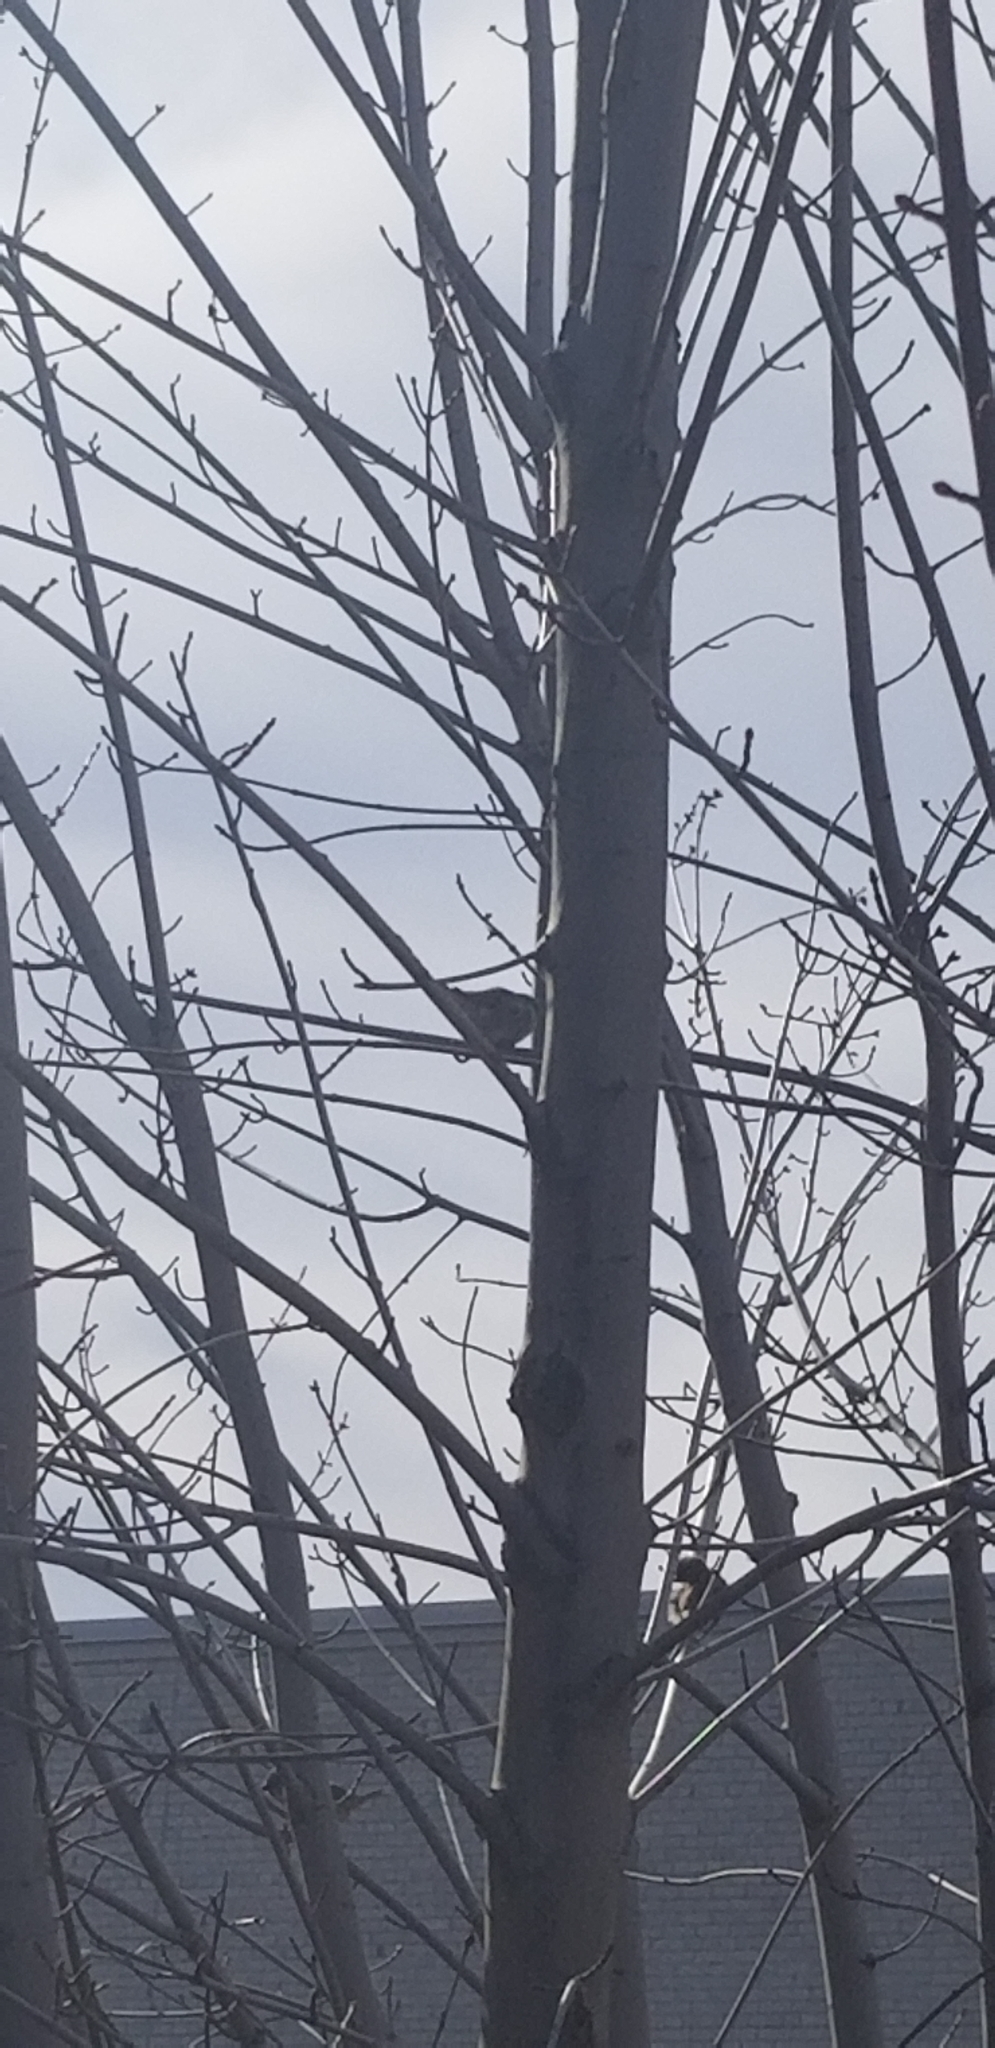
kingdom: Animalia
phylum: Chordata
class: Aves
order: Passeriformes
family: Passeridae
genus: Passer
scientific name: Passer domesticus
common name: House sparrow
